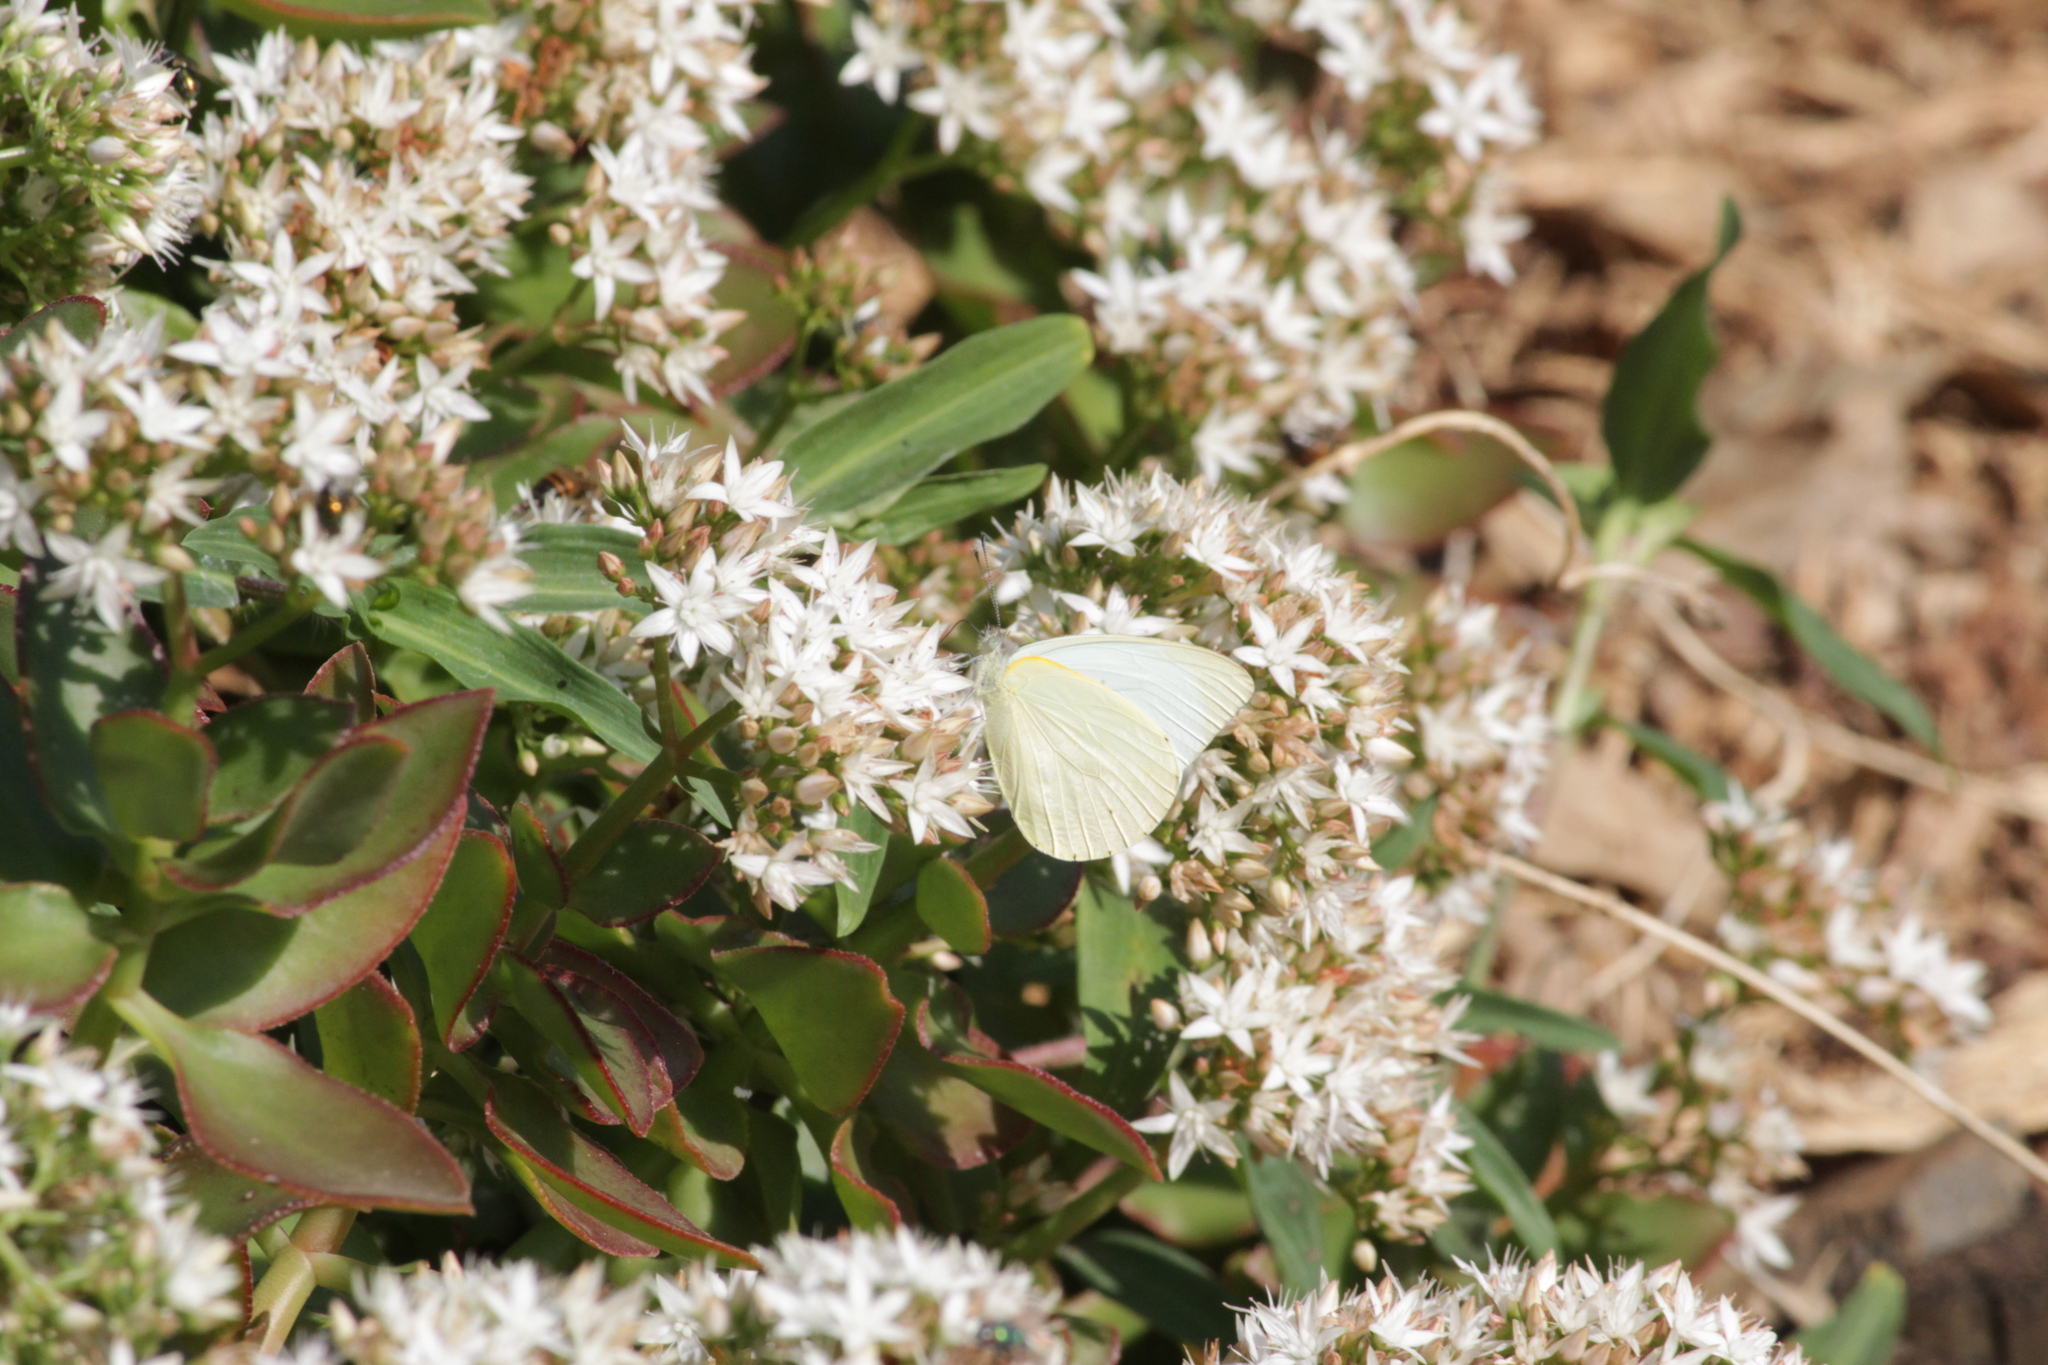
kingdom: Animalia
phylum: Arthropoda
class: Insecta
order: Lepidoptera
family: Pieridae
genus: Dixeia
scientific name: Dixeia pigea
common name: Ant-heap small white
